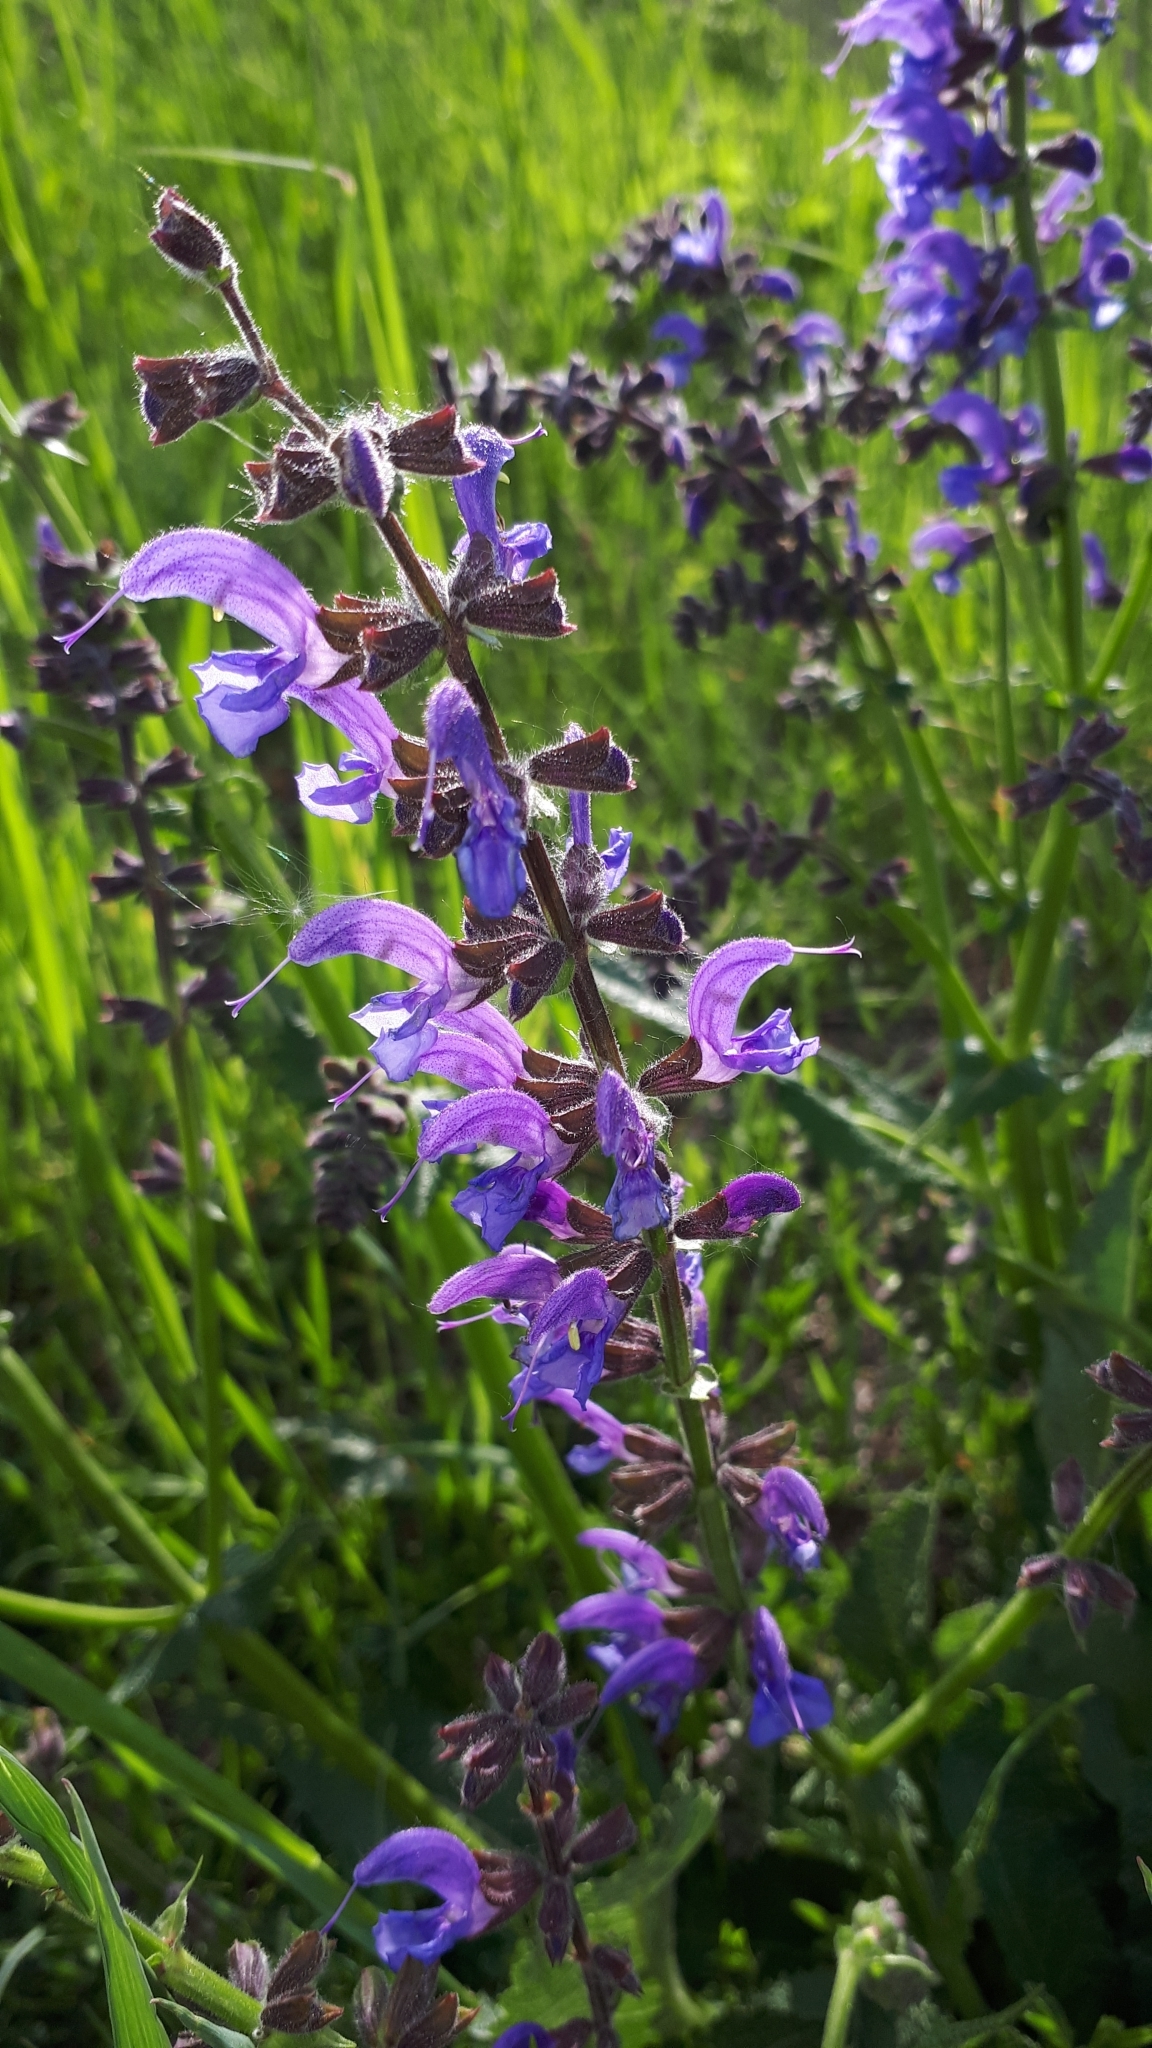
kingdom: Plantae
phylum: Tracheophyta
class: Magnoliopsida
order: Lamiales
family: Lamiaceae
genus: Salvia
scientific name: Salvia pratensis
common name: Meadow sage
